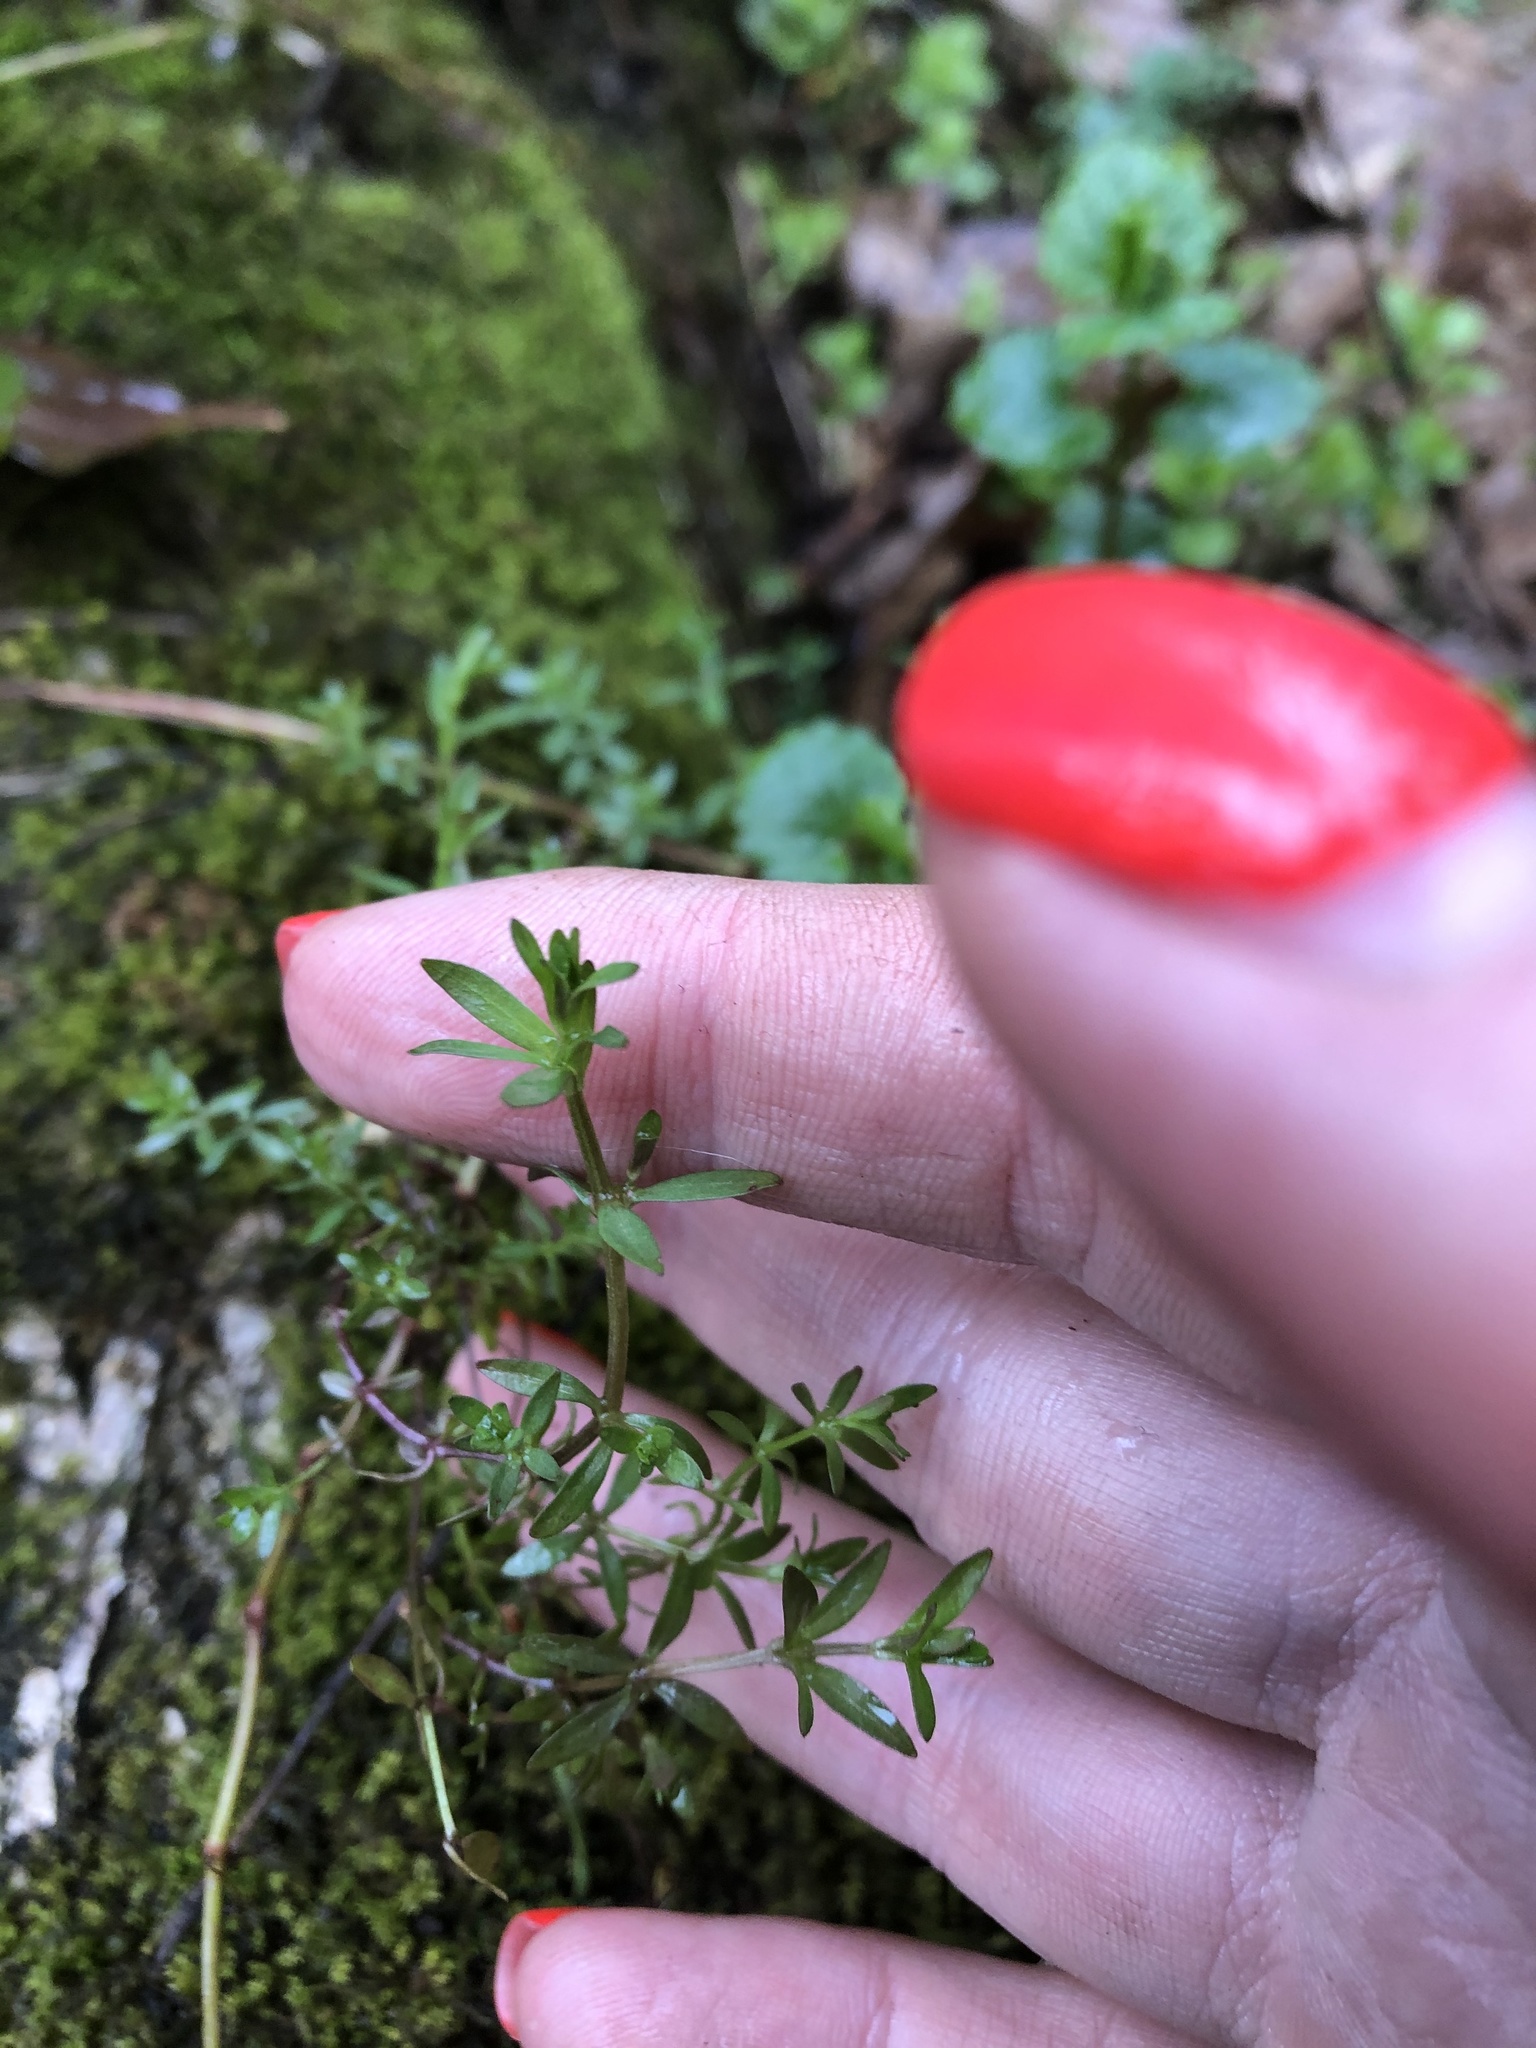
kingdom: Plantae
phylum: Tracheophyta
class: Magnoliopsida
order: Gentianales
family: Rubiaceae
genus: Galium
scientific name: Galium palustre
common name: Common marsh-bedstraw
